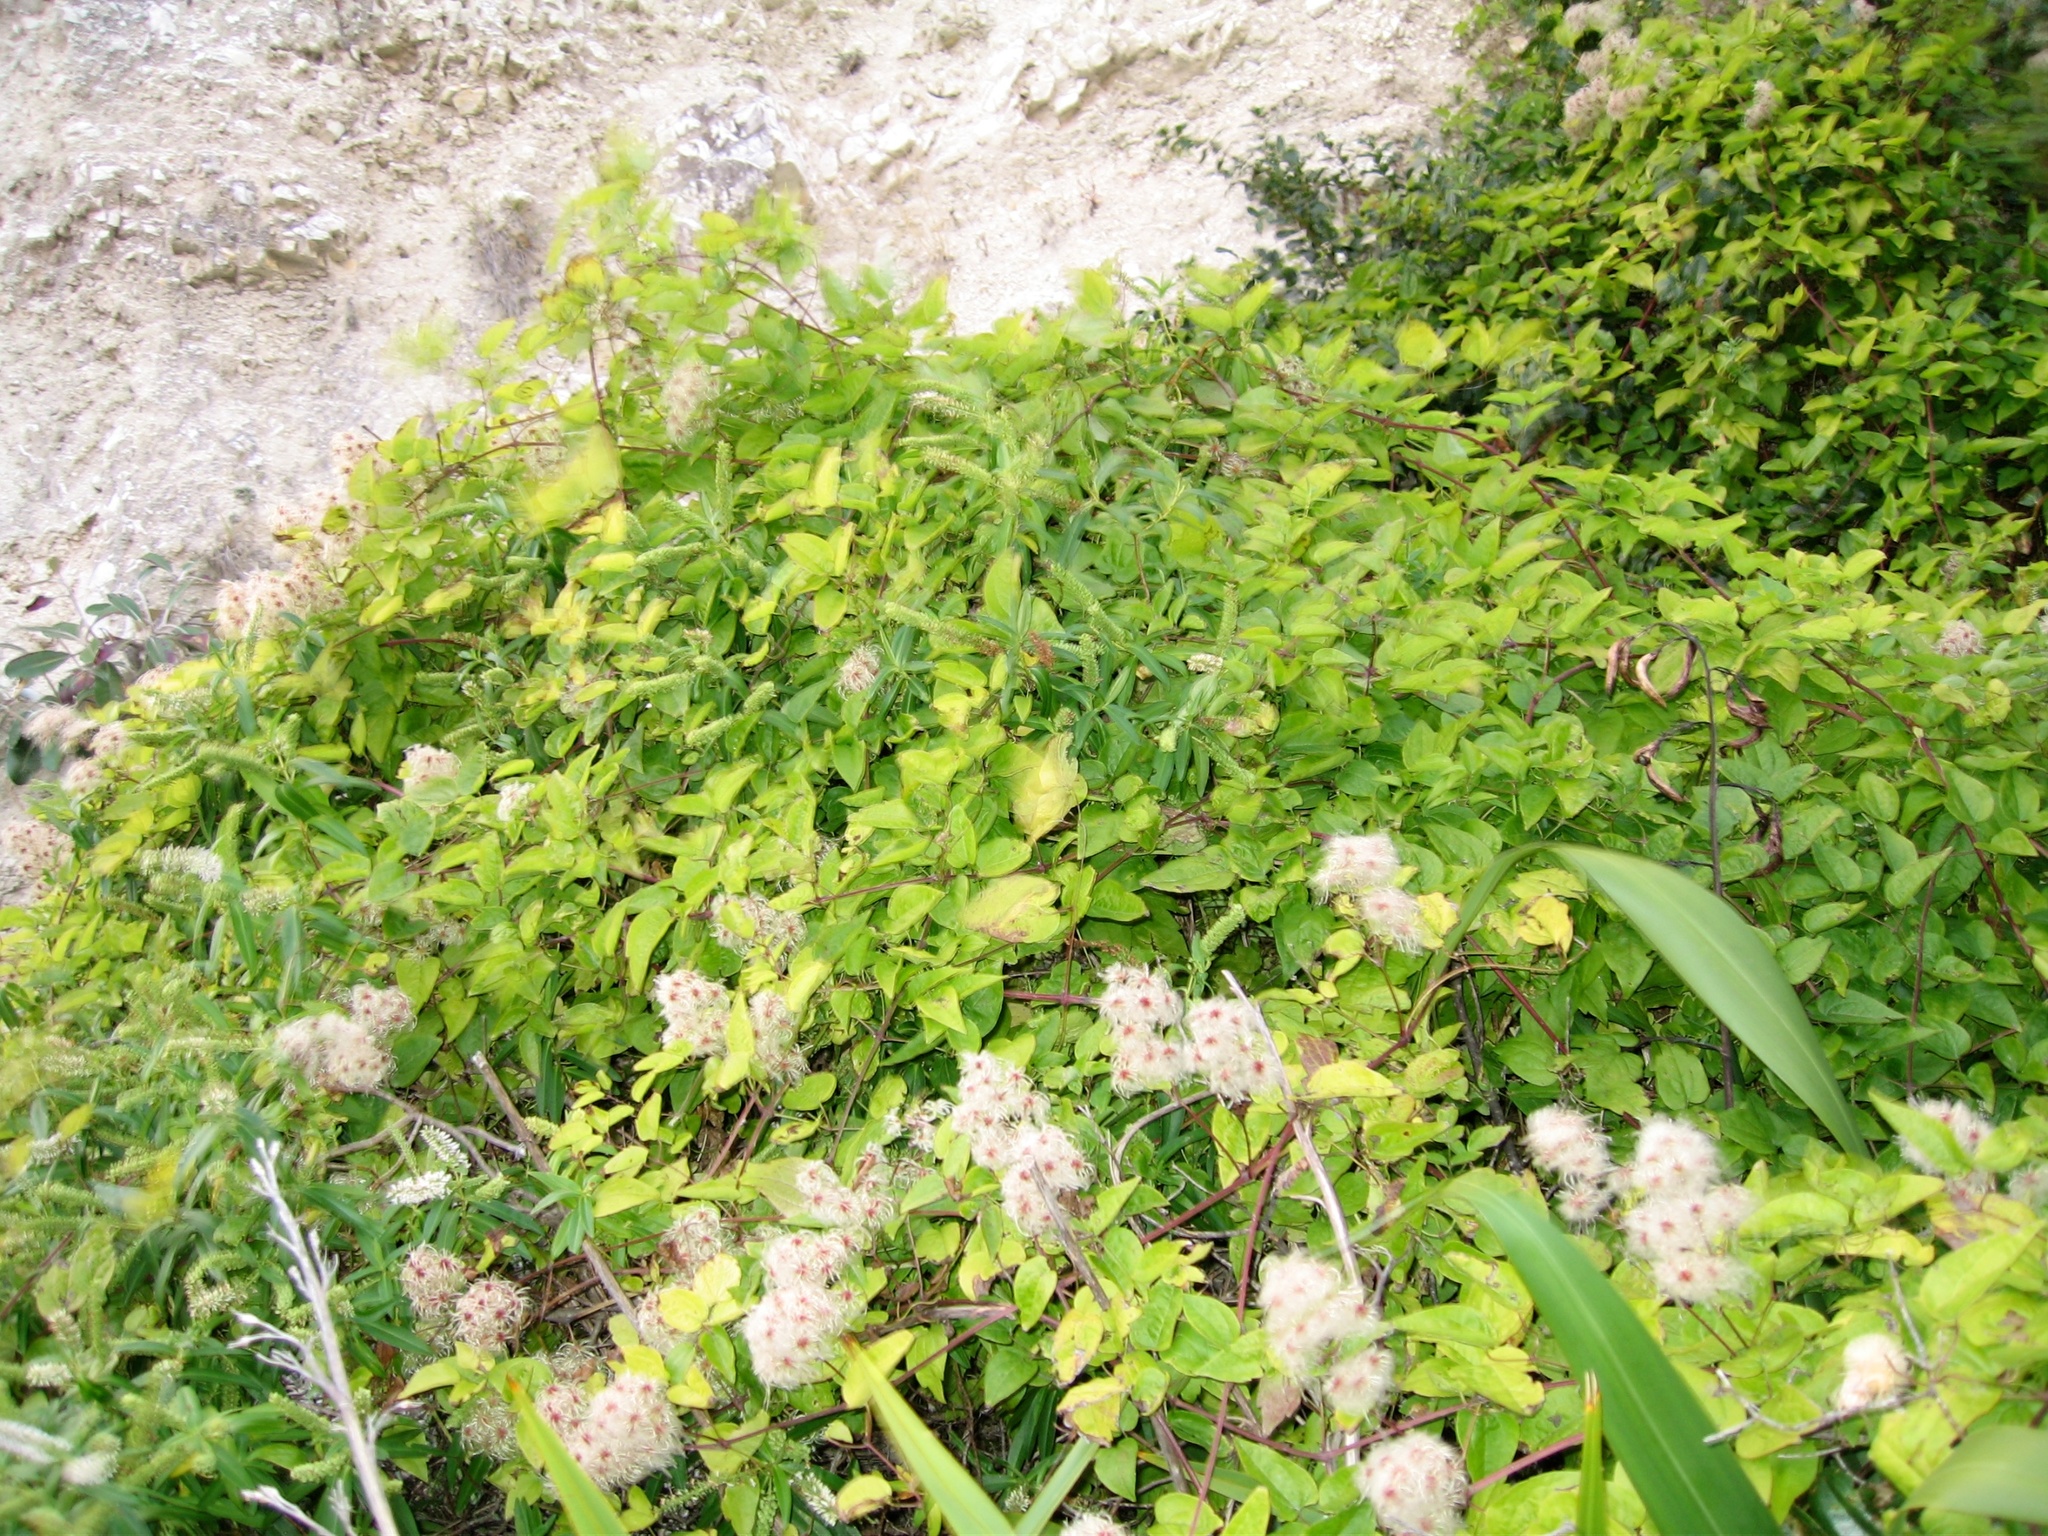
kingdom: Plantae
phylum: Tracheophyta
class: Magnoliopsida
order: Ranunculales
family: Ranunculaceae
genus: Clematis
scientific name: Clematis vitalba
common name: Evergreen clematis
